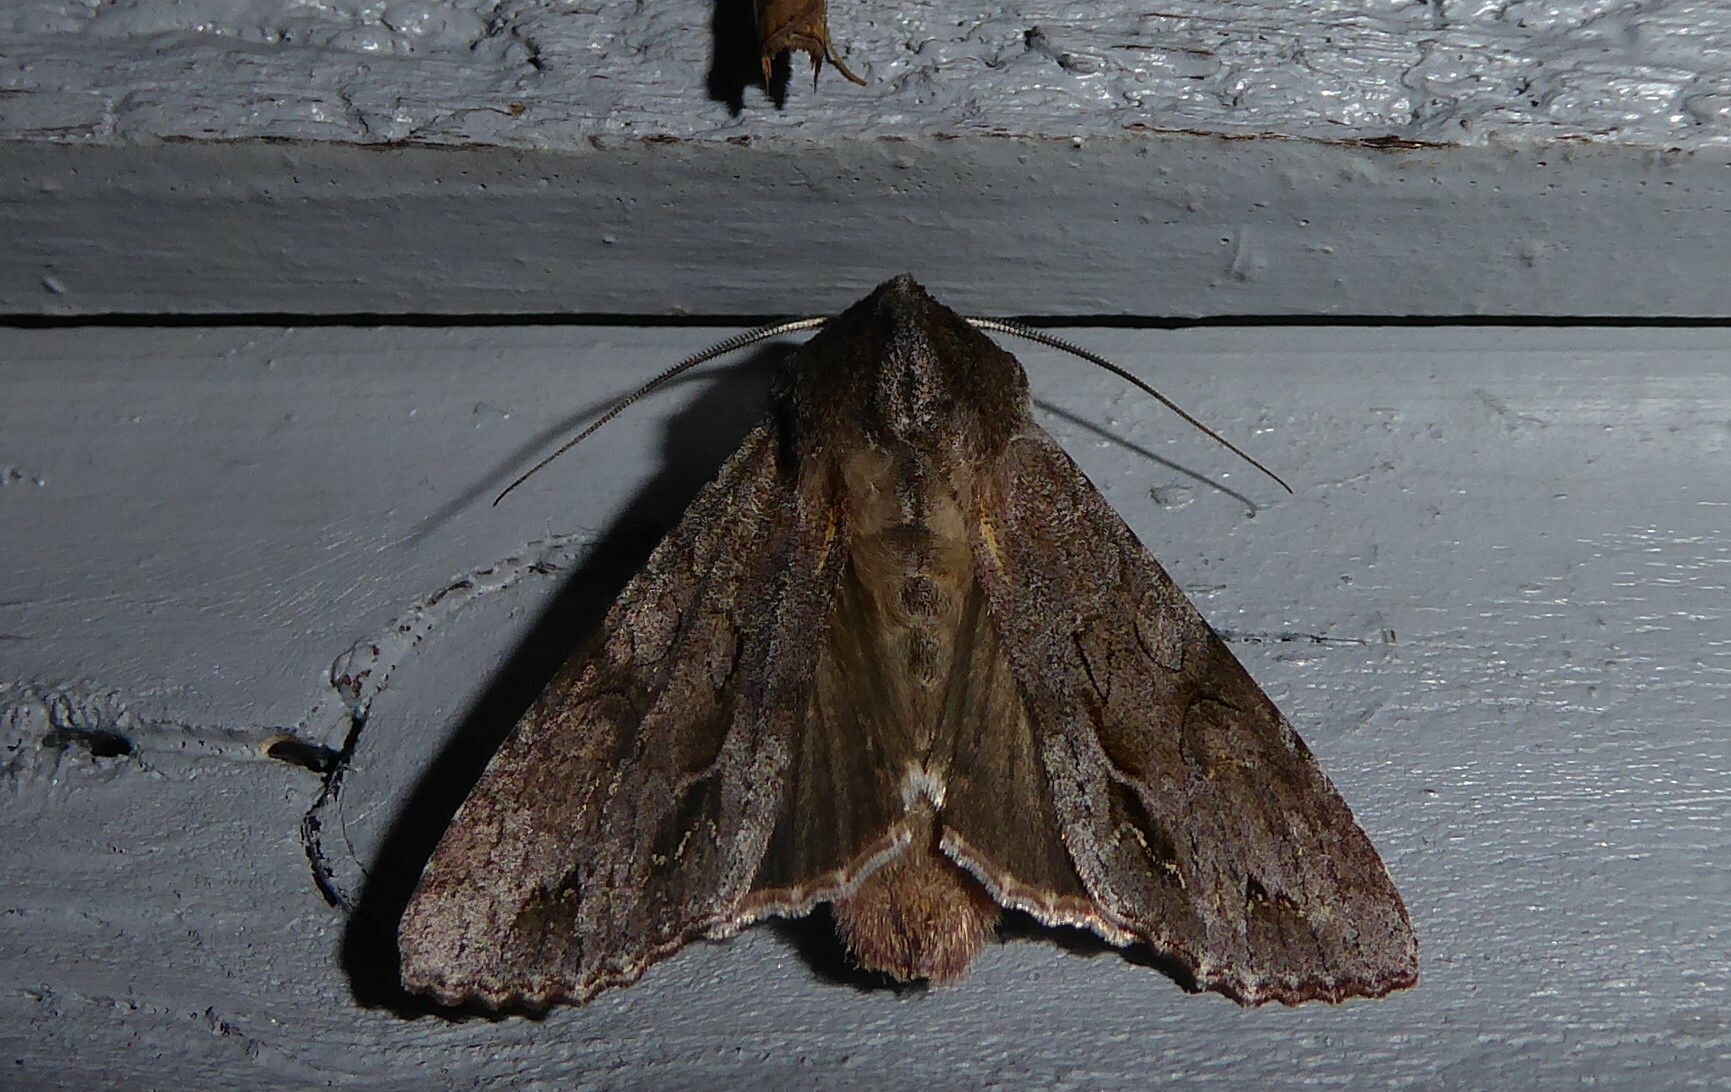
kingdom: Animalia
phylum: Arthropoda
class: Insecta
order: Lepidoptera
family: Noctuidae
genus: Ichneutica
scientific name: Ichneutica
